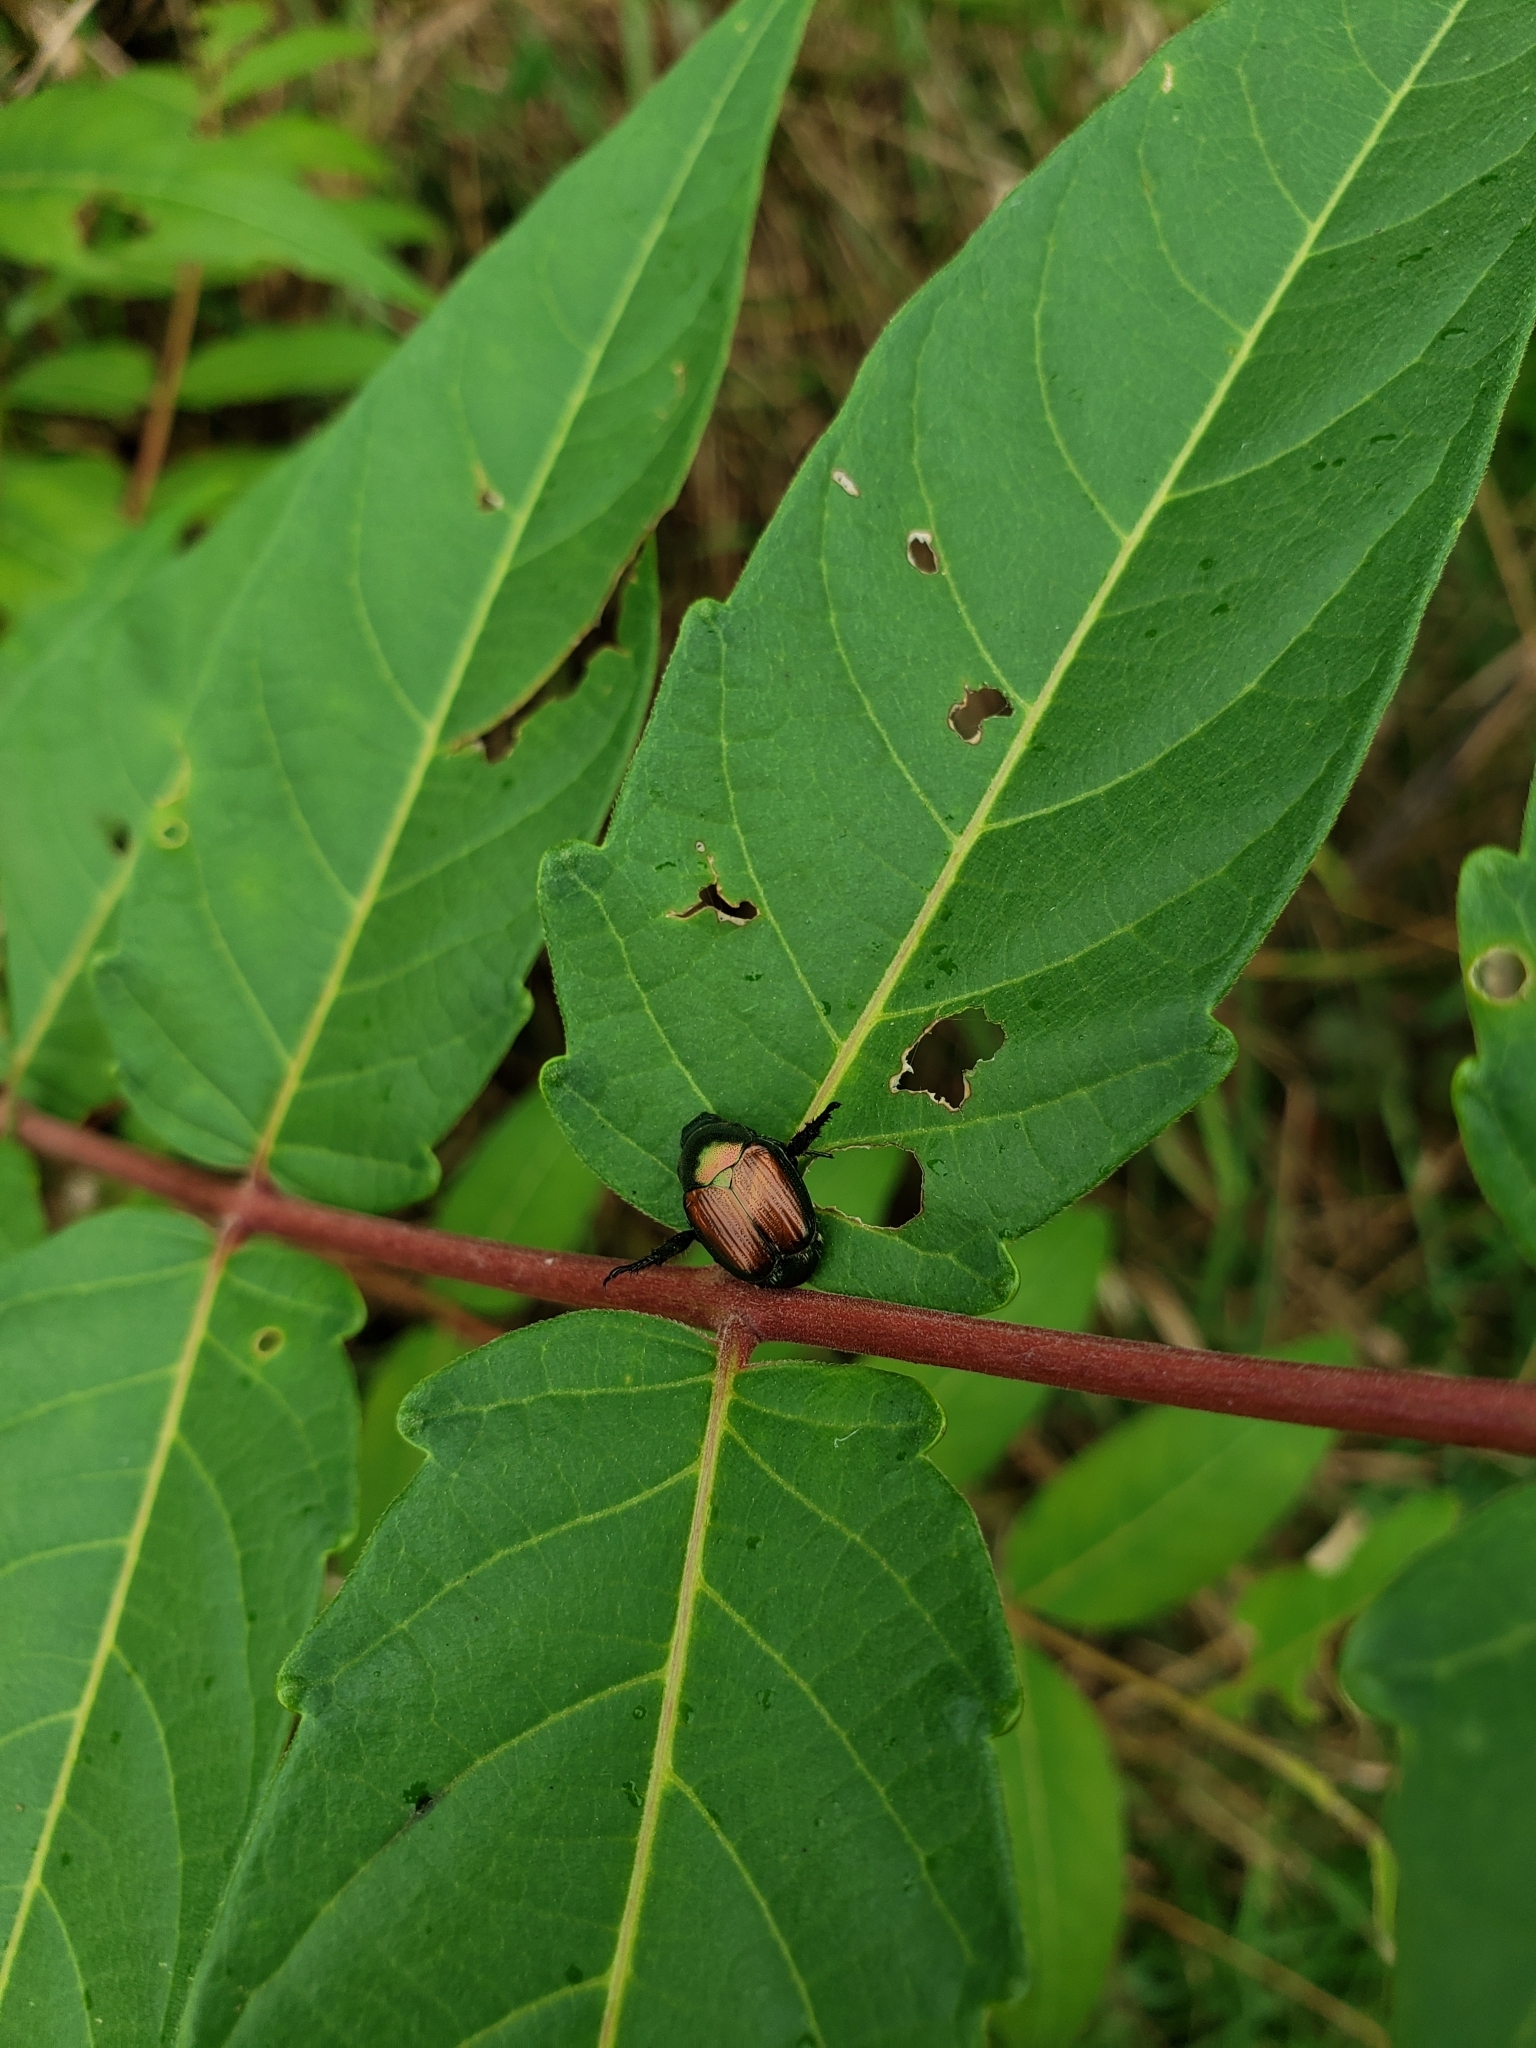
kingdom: Animalia
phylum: Arthropoda
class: Insecta
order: Coleoptera
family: Scarabaeidae
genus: Popillia
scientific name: Popillia japonica
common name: Japanese beetle
